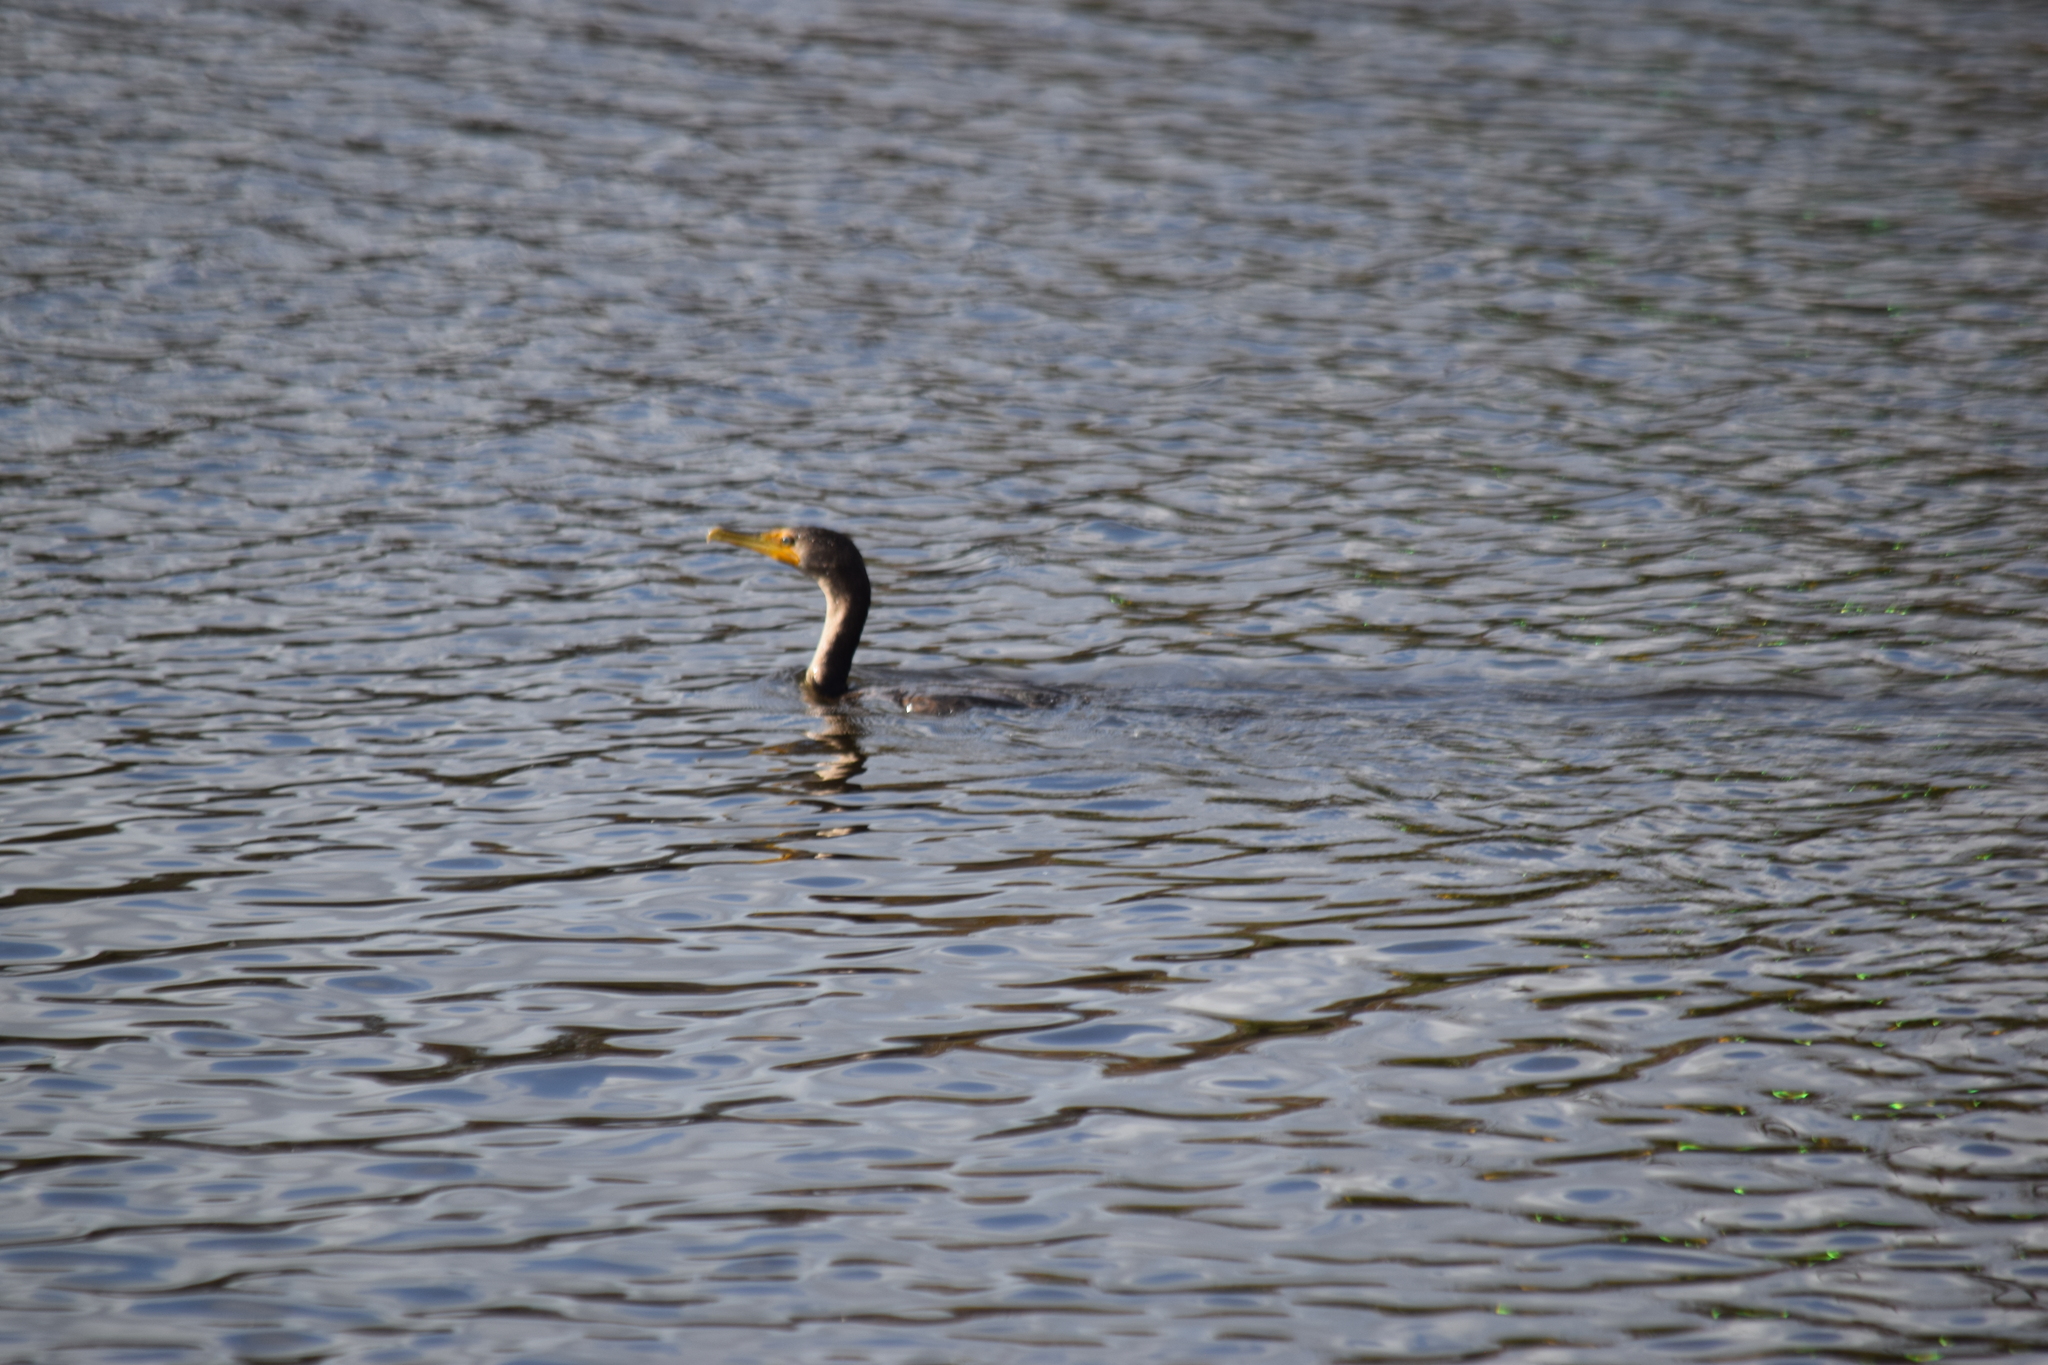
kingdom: Animalia
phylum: Chordata
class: Aves
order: Suliformes
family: Phalacrocoracidae
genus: Phalacrocorax
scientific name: Phalacrocorax auritus
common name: Double-crested cormorant
